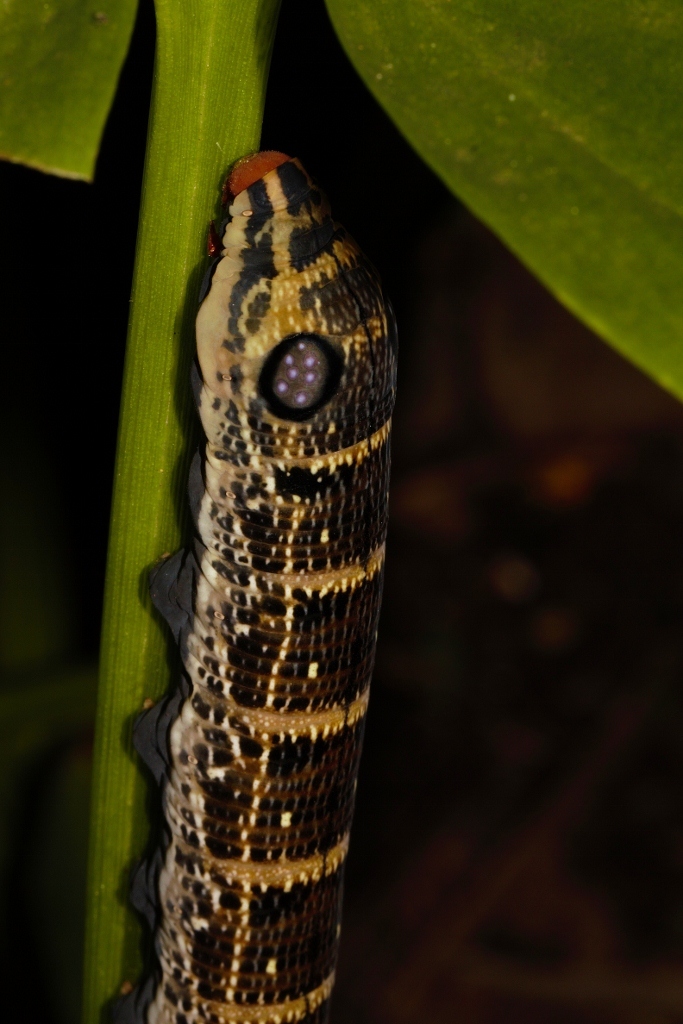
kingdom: Animalia
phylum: Arthropoda
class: Insecta
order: Lepidoptera
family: Sphingidae
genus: Hippotion
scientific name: Hippotion osiris
